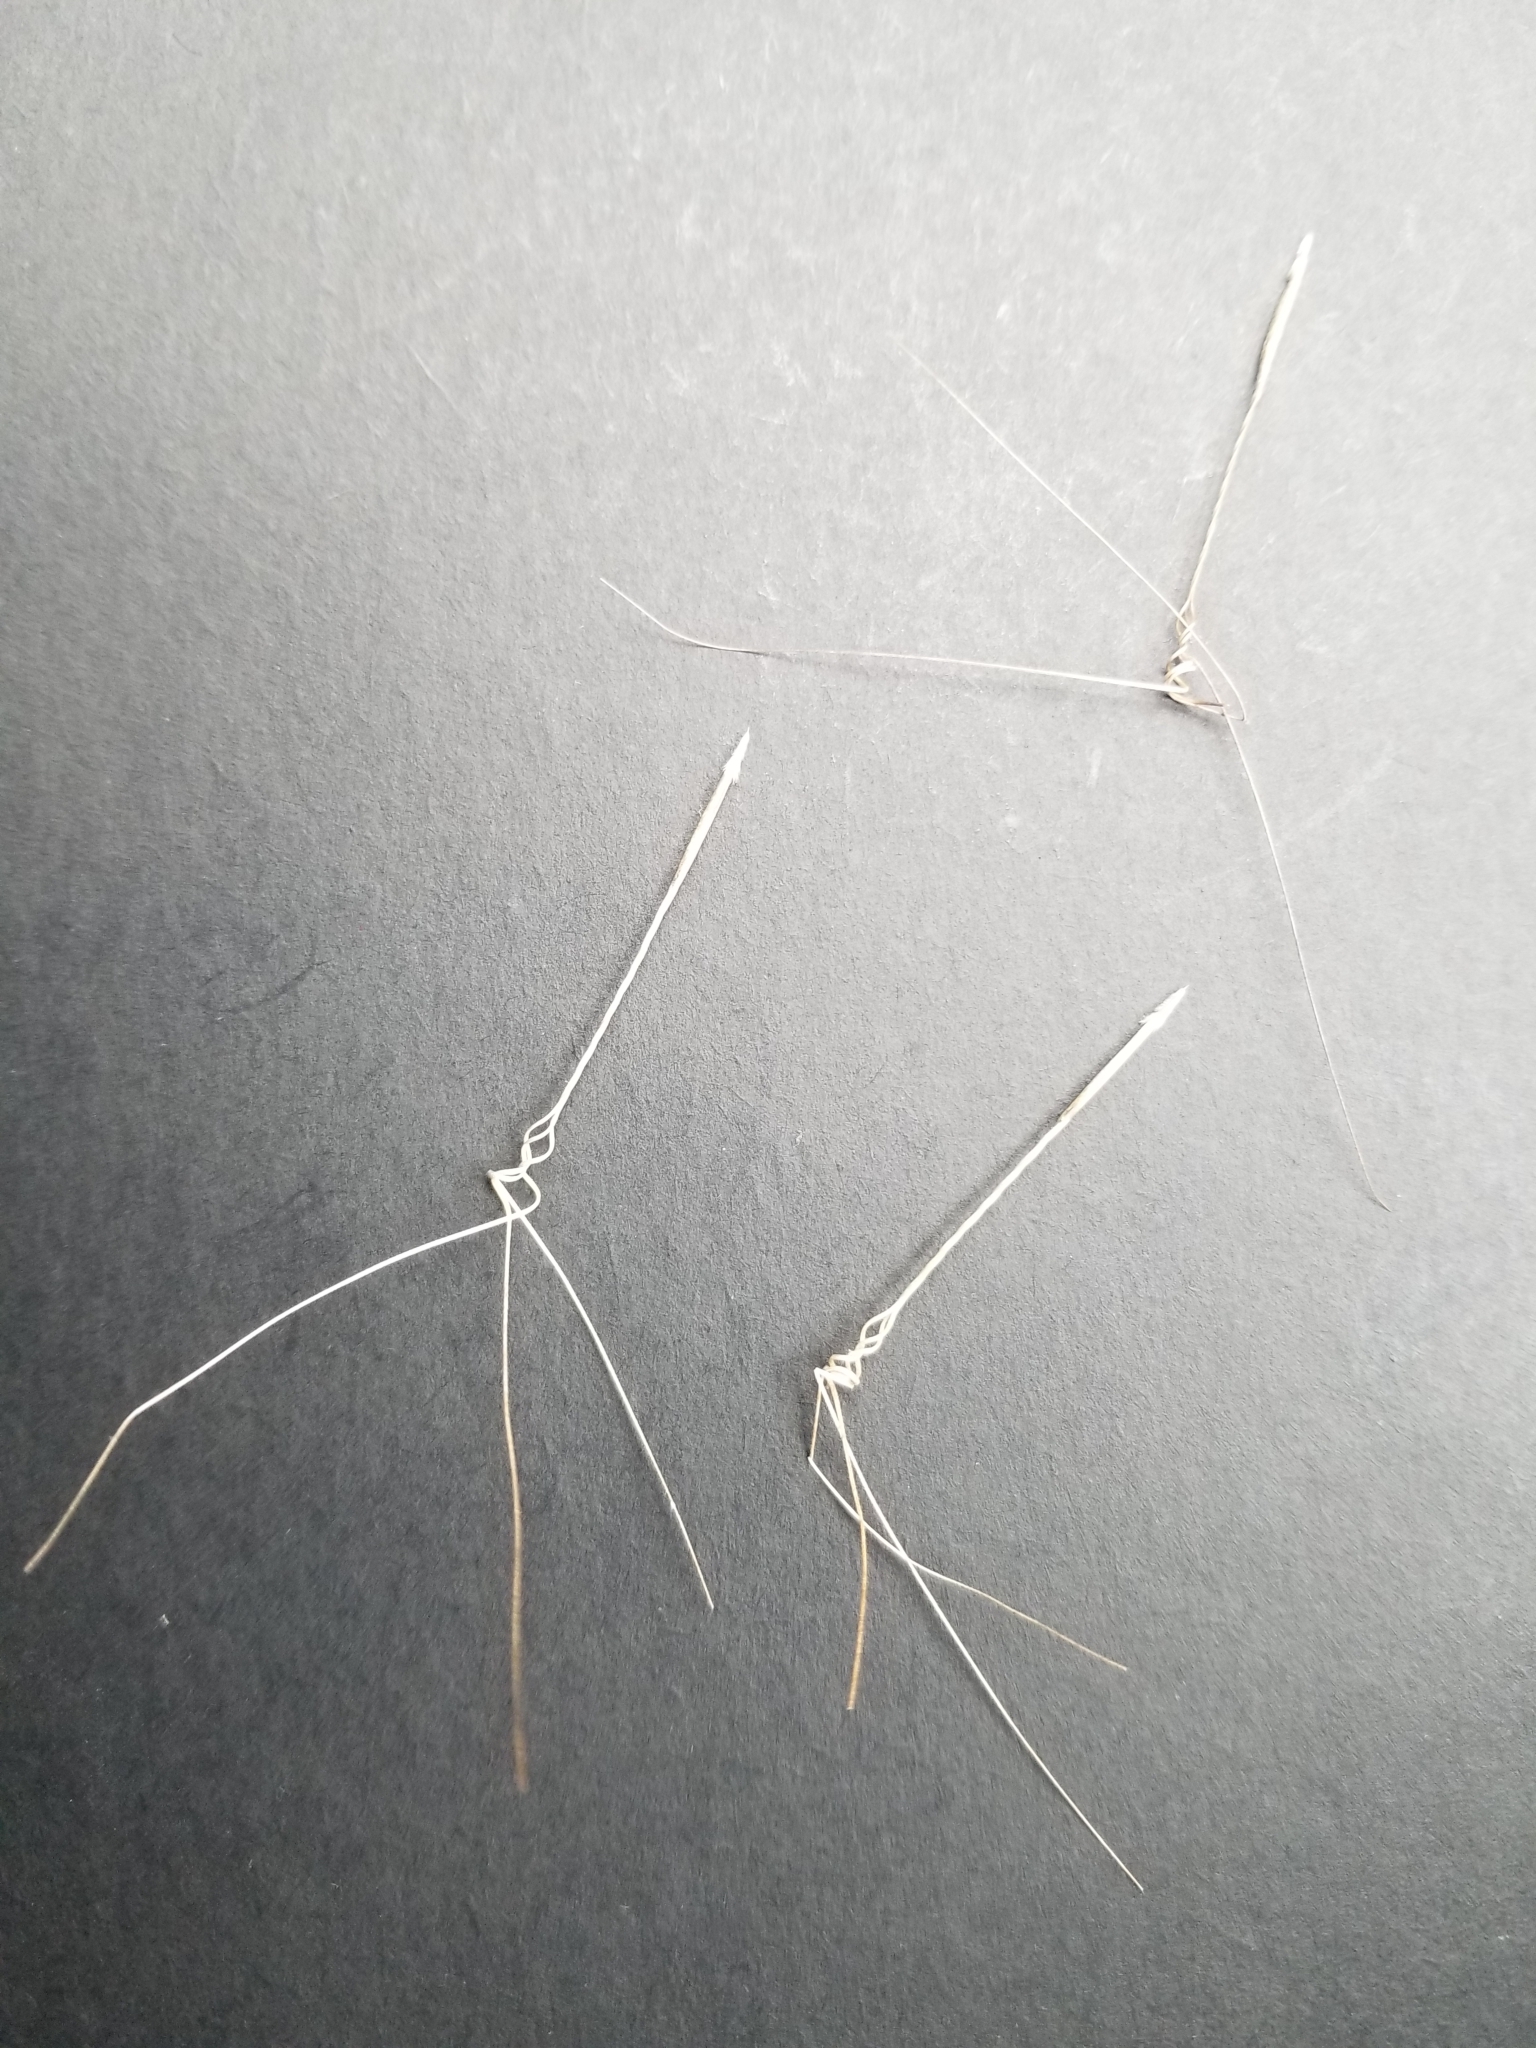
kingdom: Plantae
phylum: Tracheophyta
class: Liliopsida
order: Poales
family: Poaceae
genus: Aristida
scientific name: Aristida tuberculosa
